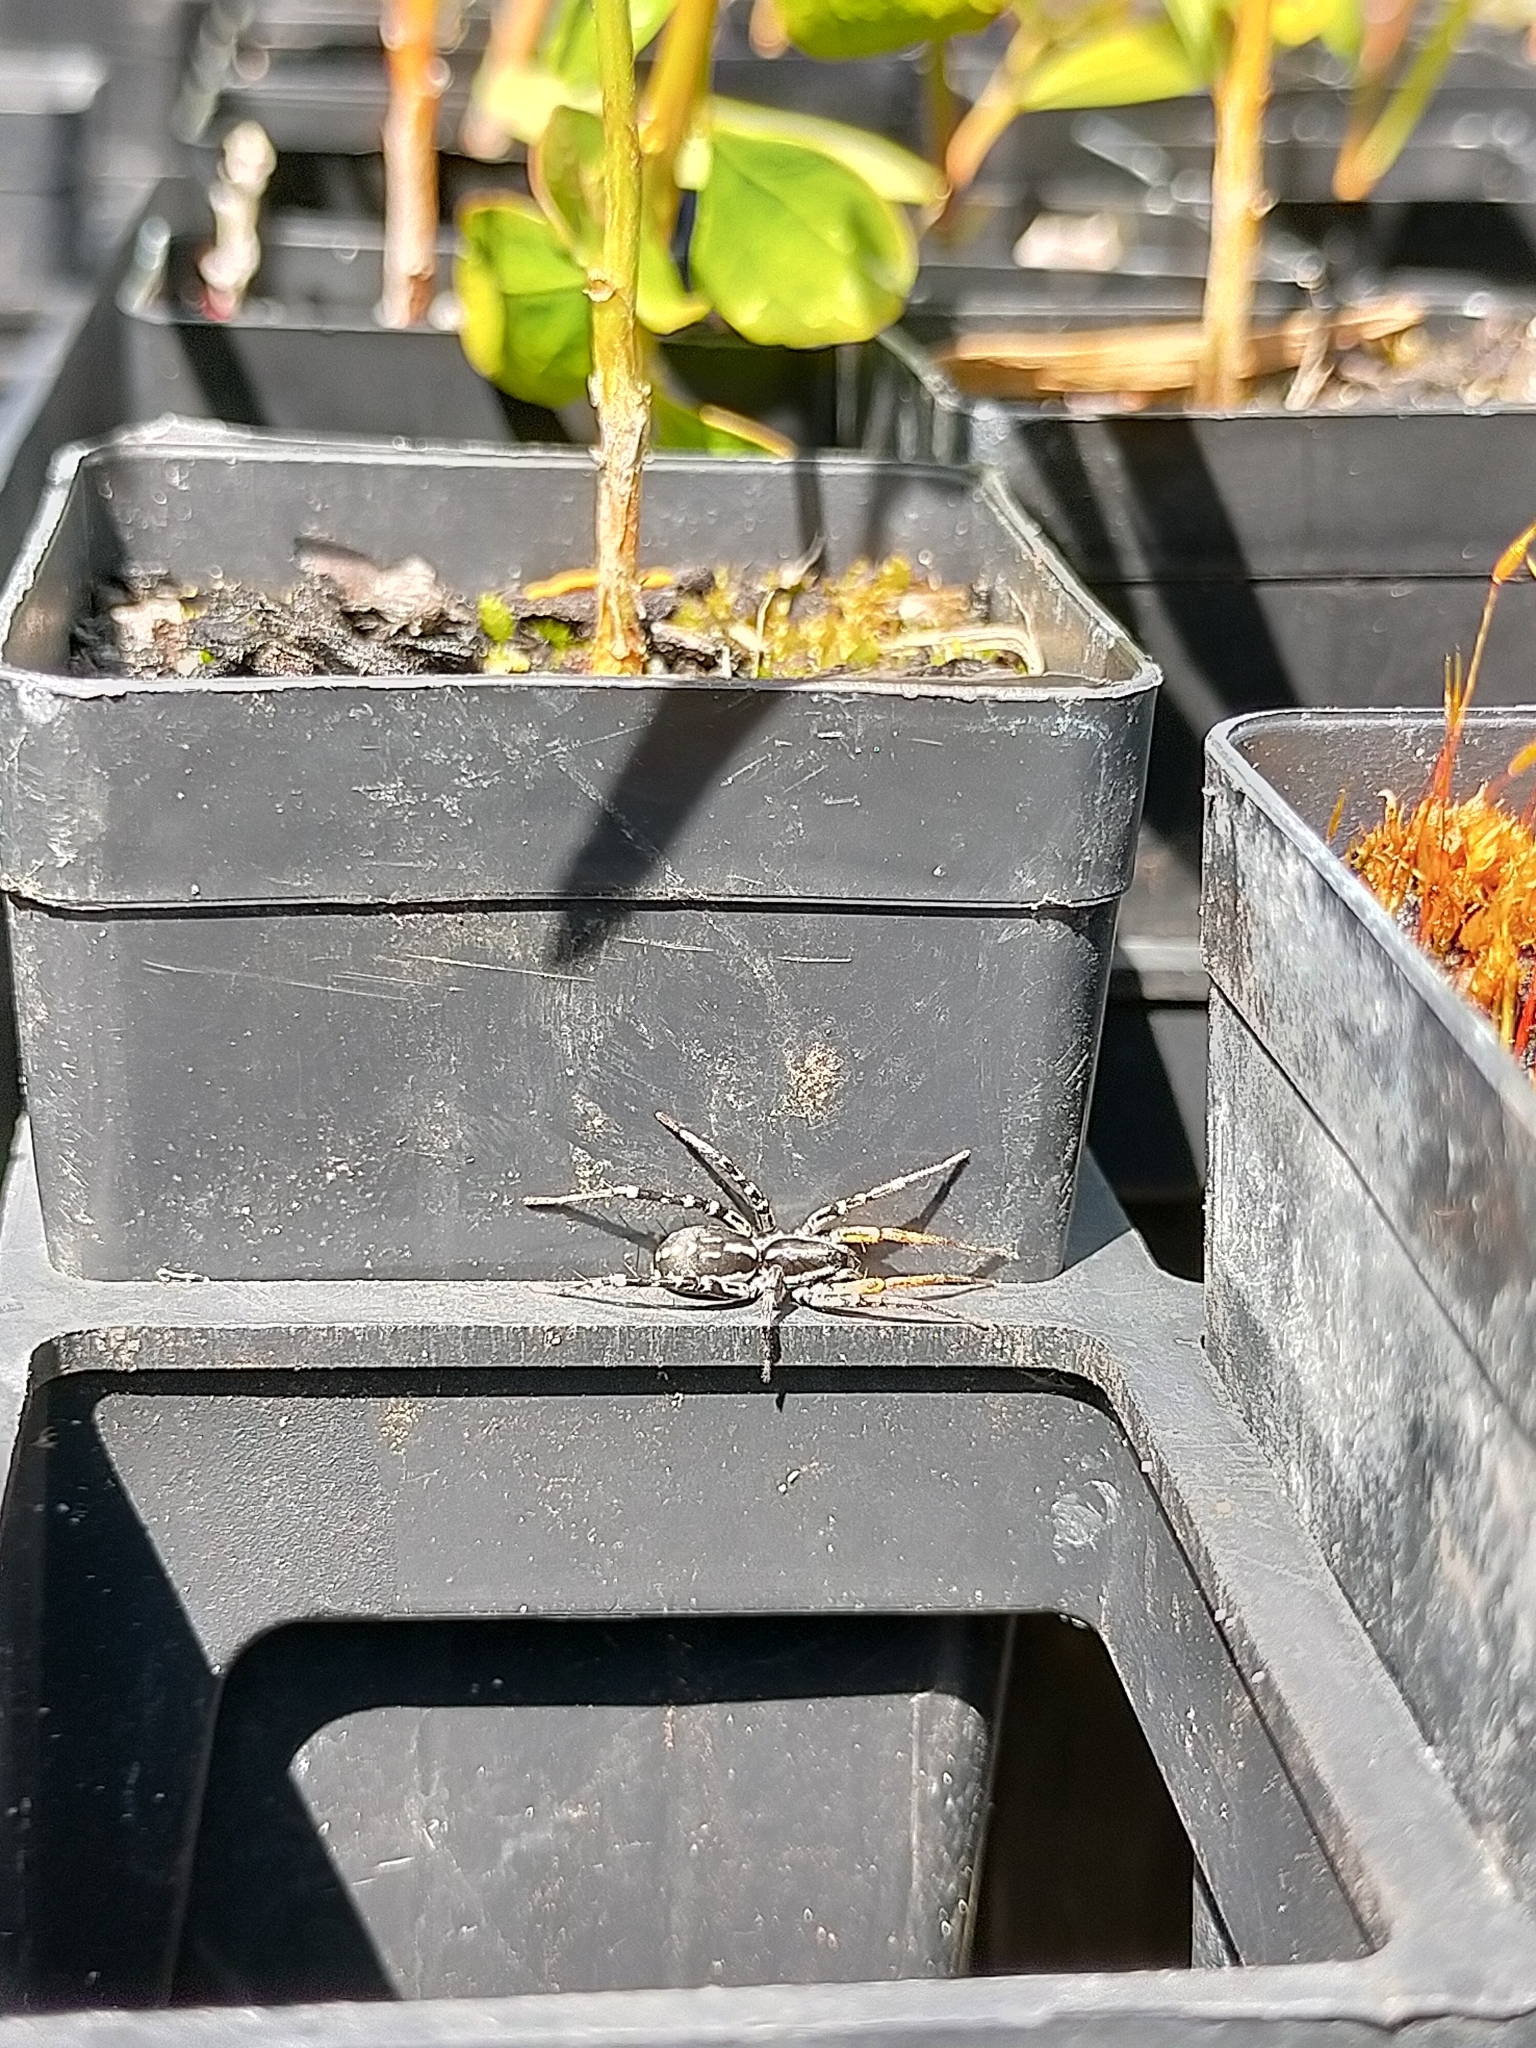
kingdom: Animalia
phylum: Arthropoda
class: Arachnida
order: Araneae
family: Corinnidae
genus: Nyssus
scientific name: Nyssus coloripes
